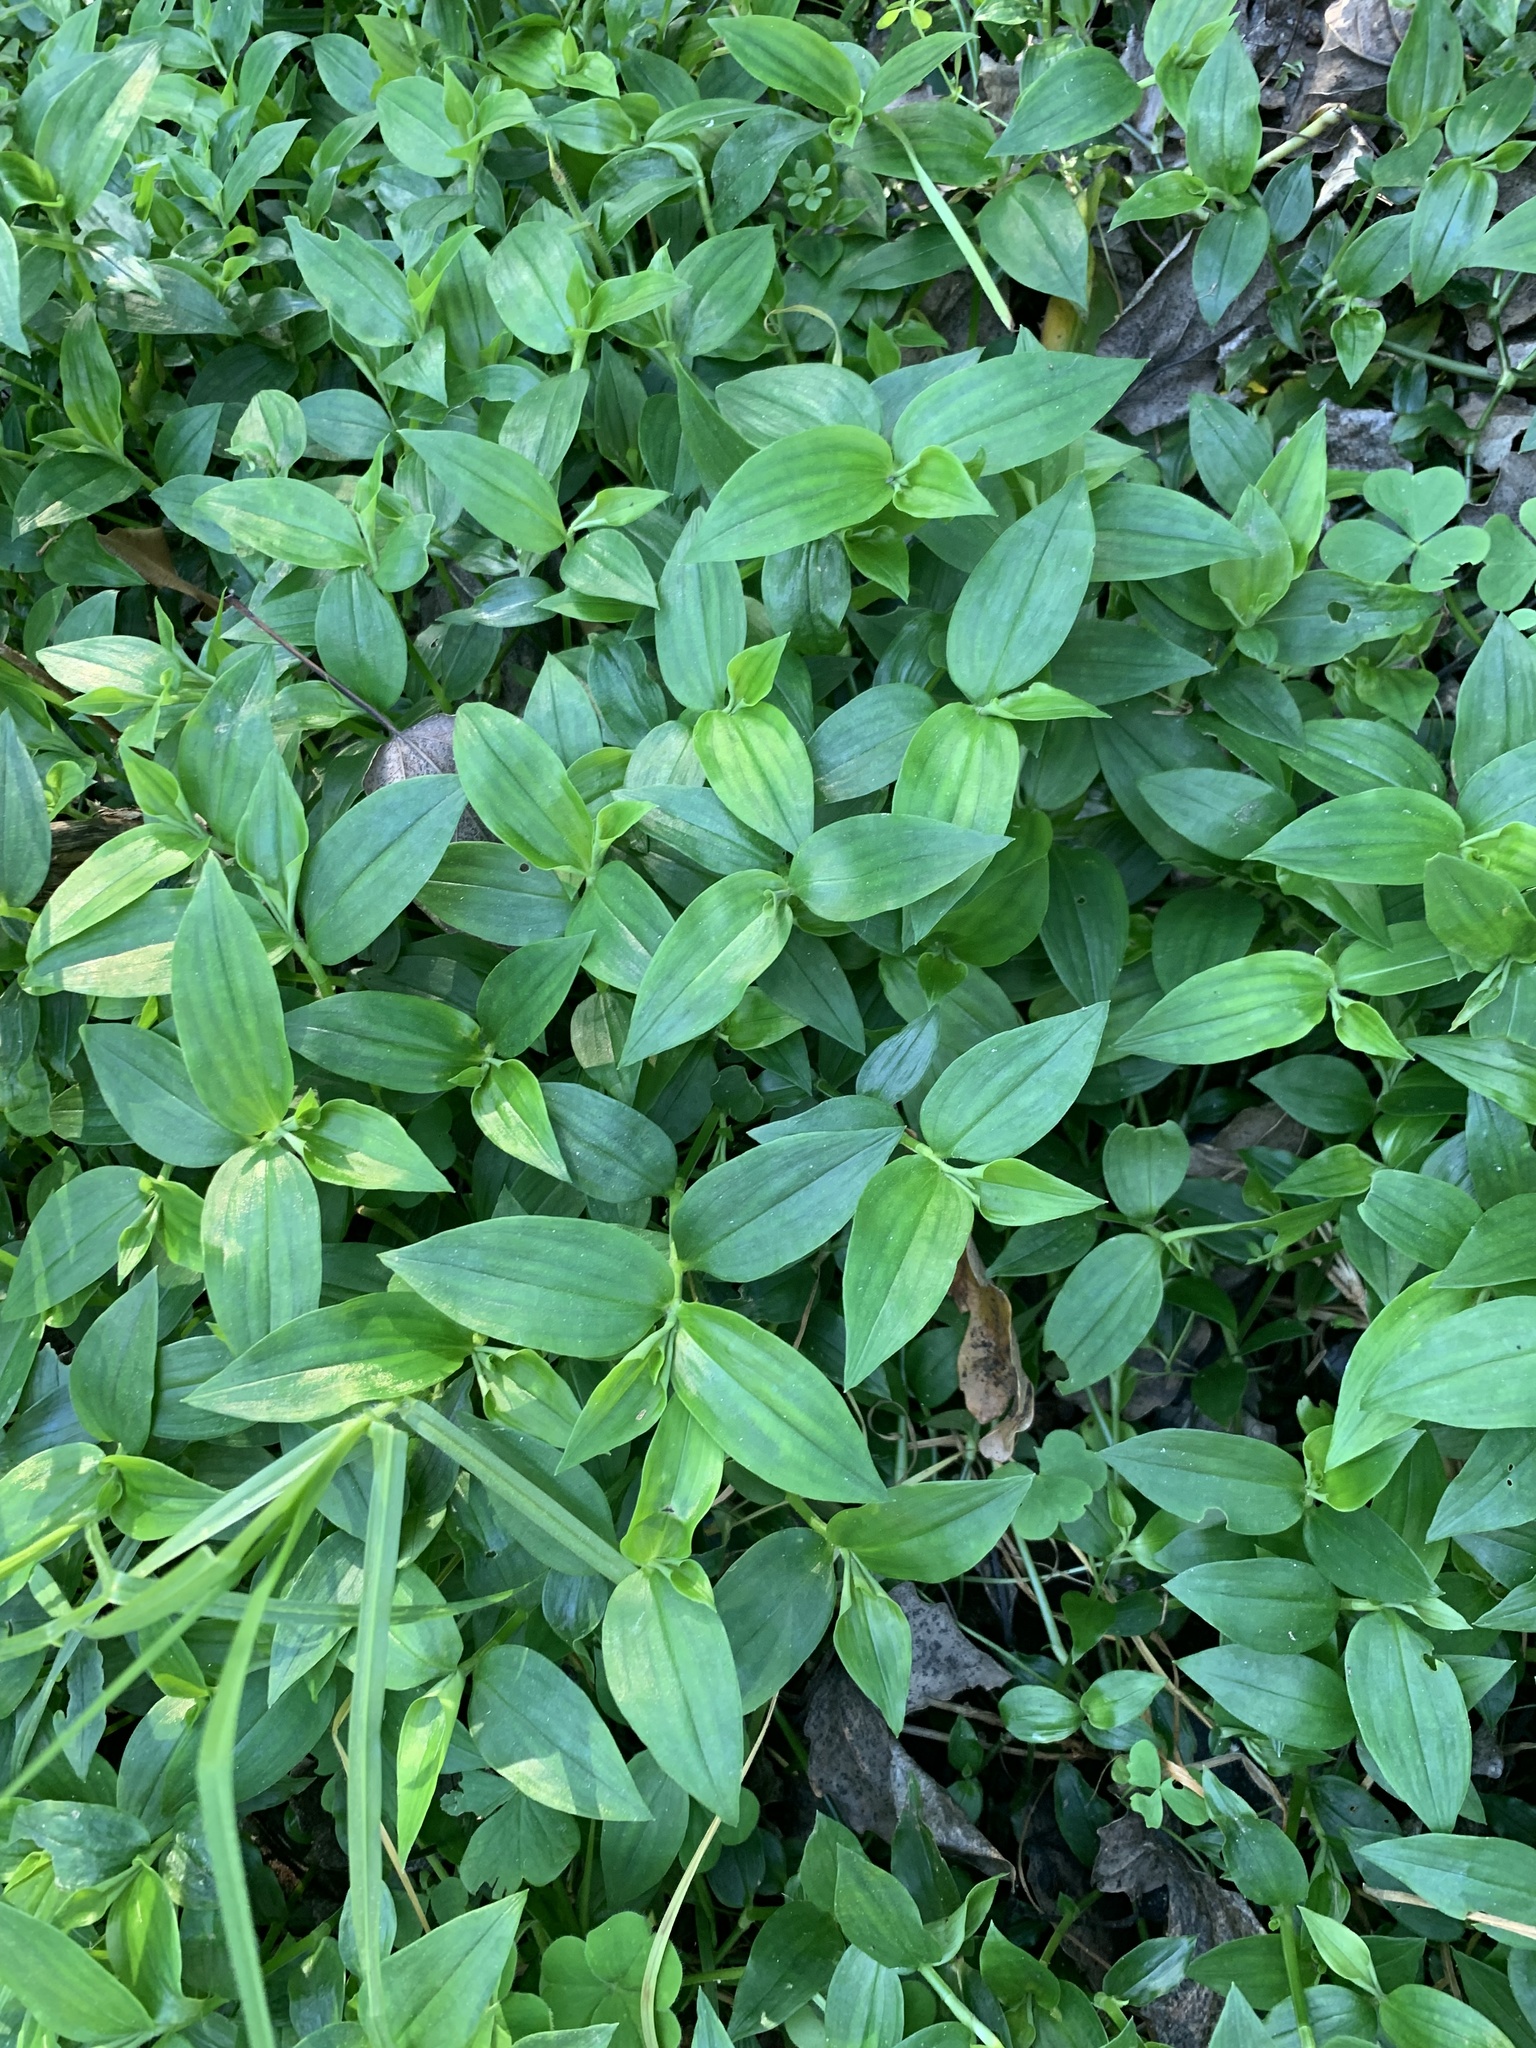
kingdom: Plantae
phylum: Tracheophyta
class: Liliopsida
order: Commelinales
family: Commelinaceae
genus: Tradescantia
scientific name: Tradescantia fluminensis
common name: Wandering-jew
